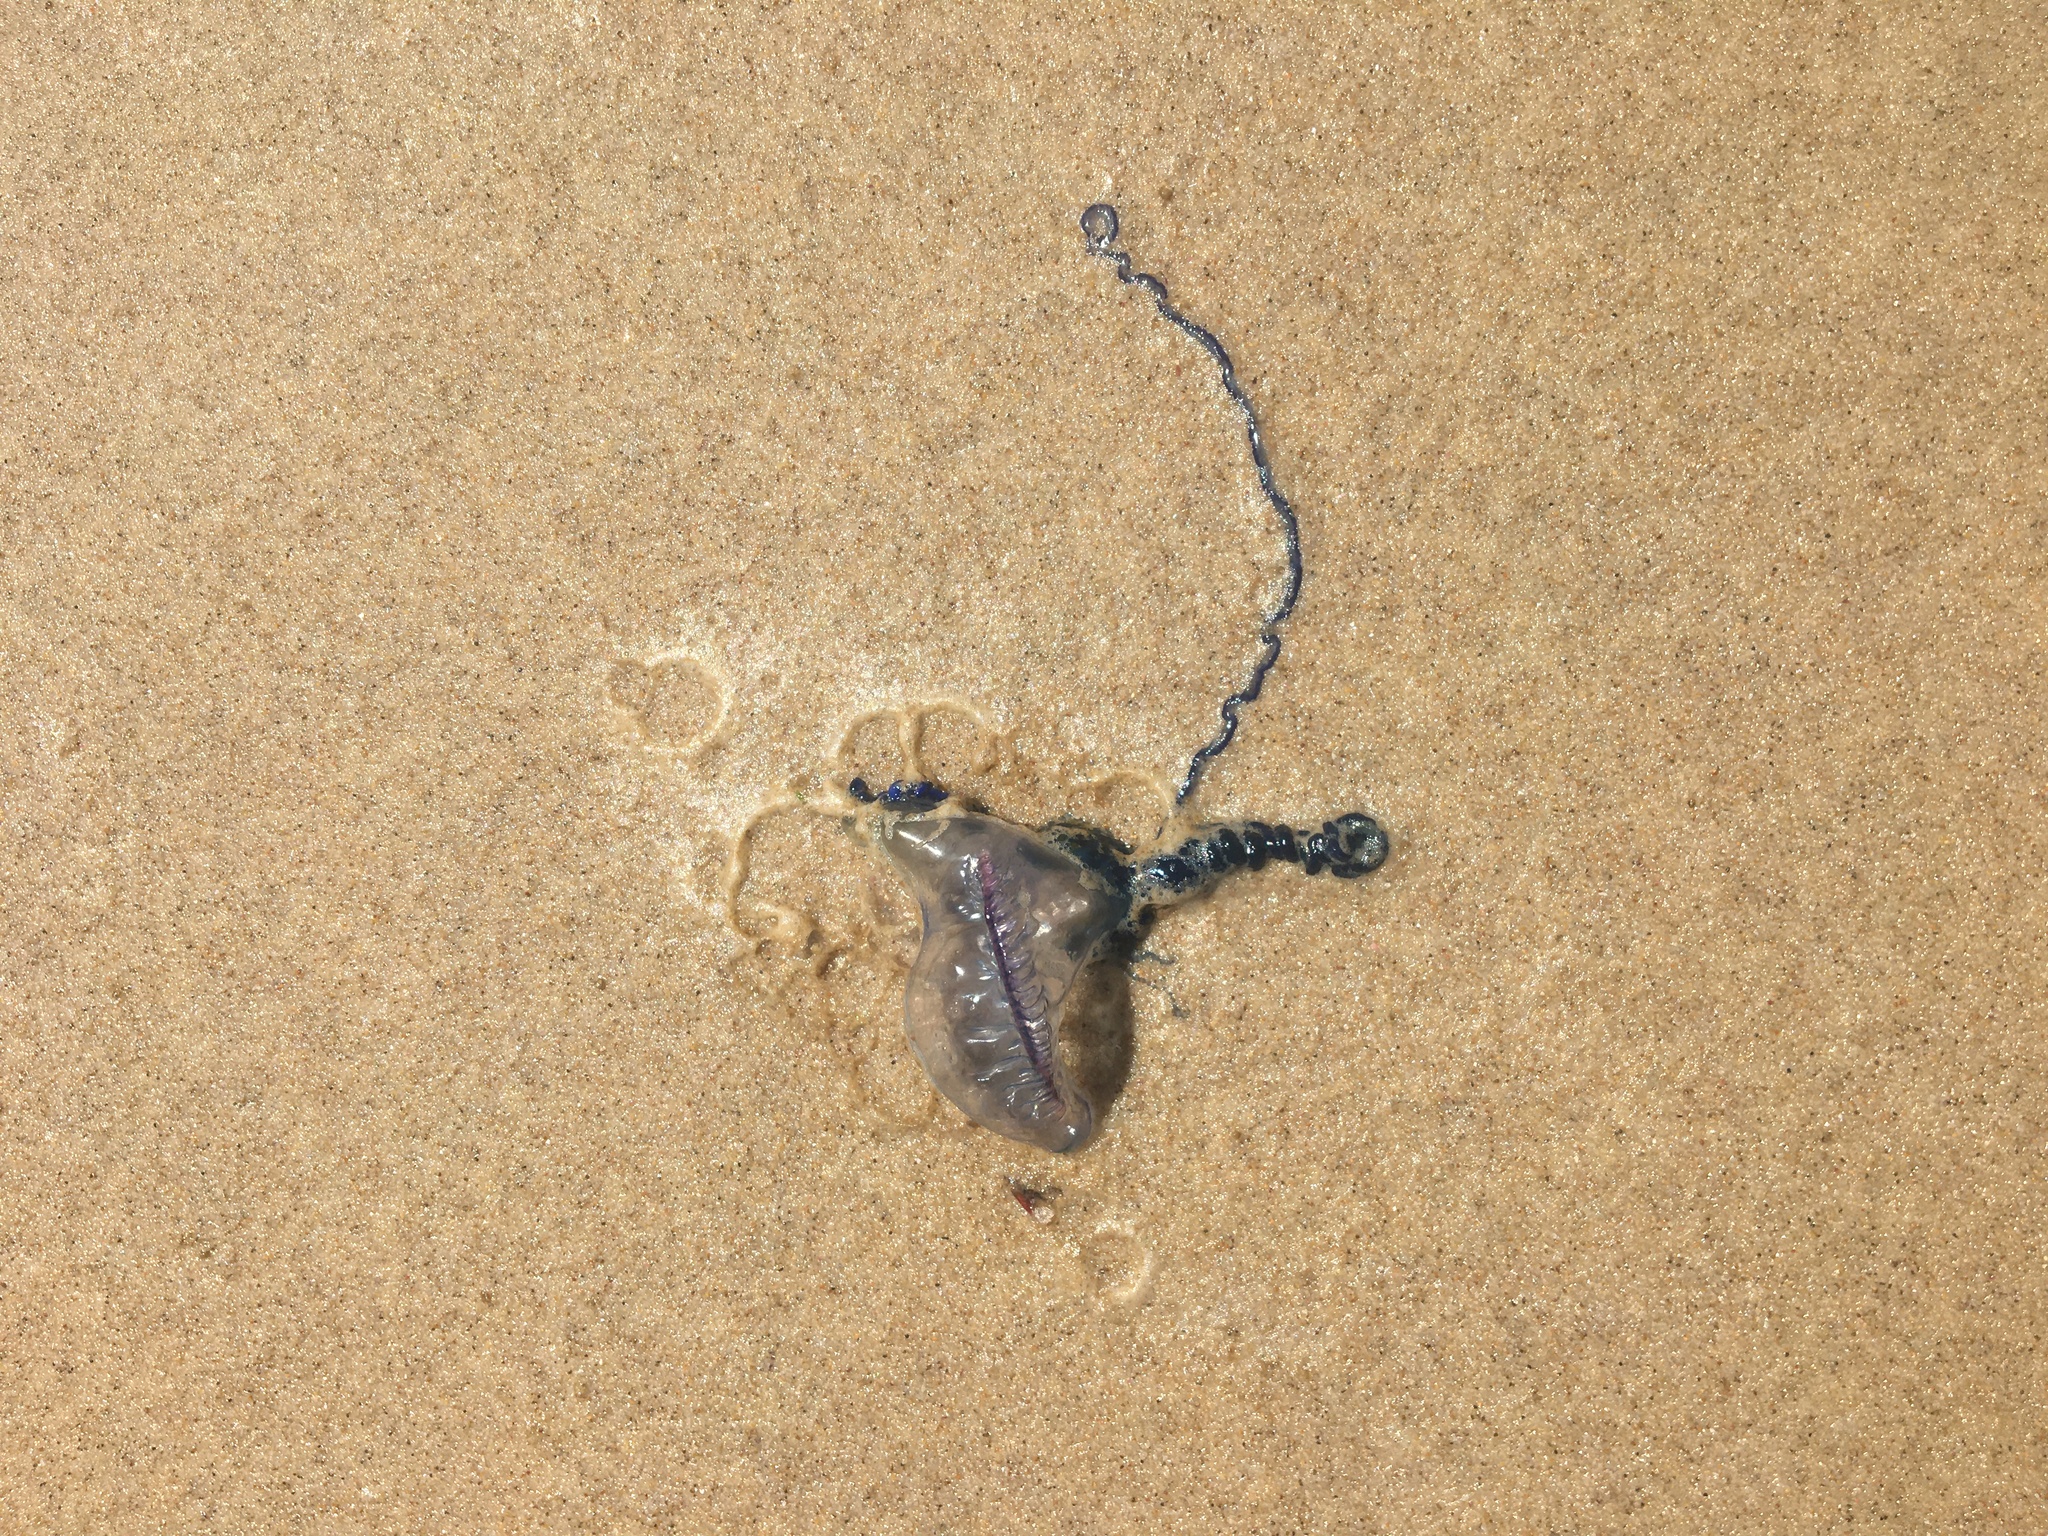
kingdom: Animalia
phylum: Cnidaria
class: Hydrozoa
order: Siphonophorae
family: Physaliidae
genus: Physalia
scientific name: Physalia physalis
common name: Portuguese man-of-war
